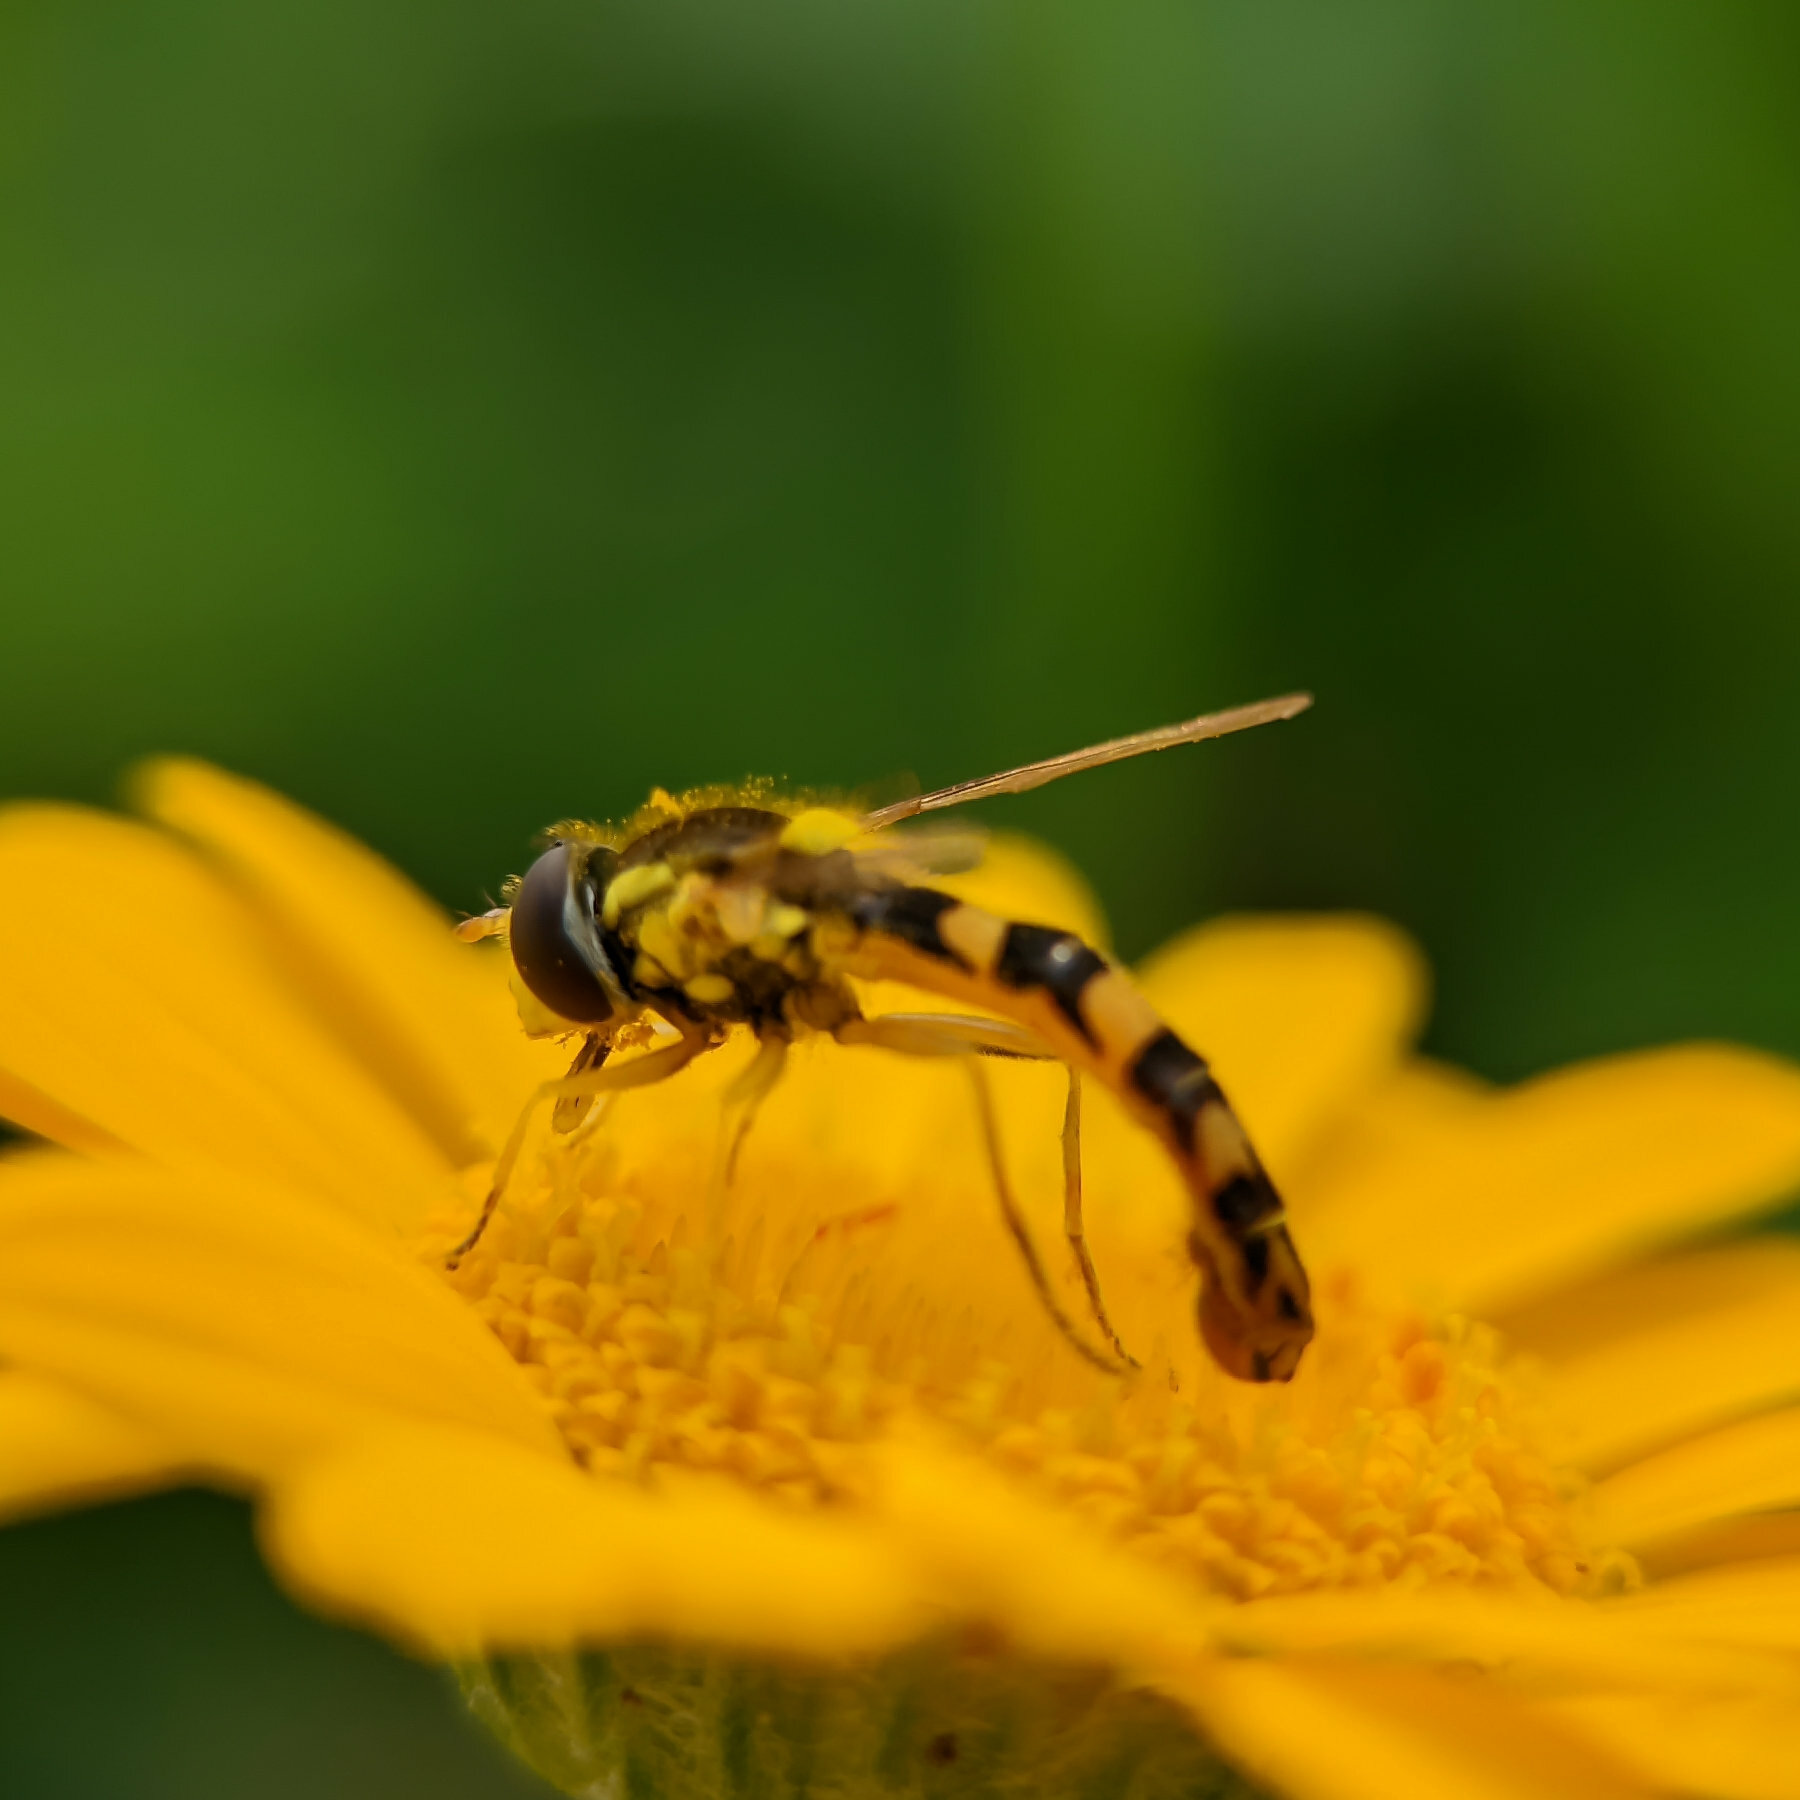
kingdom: Animalia
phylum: Arthropoda
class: Insecta
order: Diptera
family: Syrphidae
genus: Sphaerophoria
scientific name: Sphaerophoria scripta
